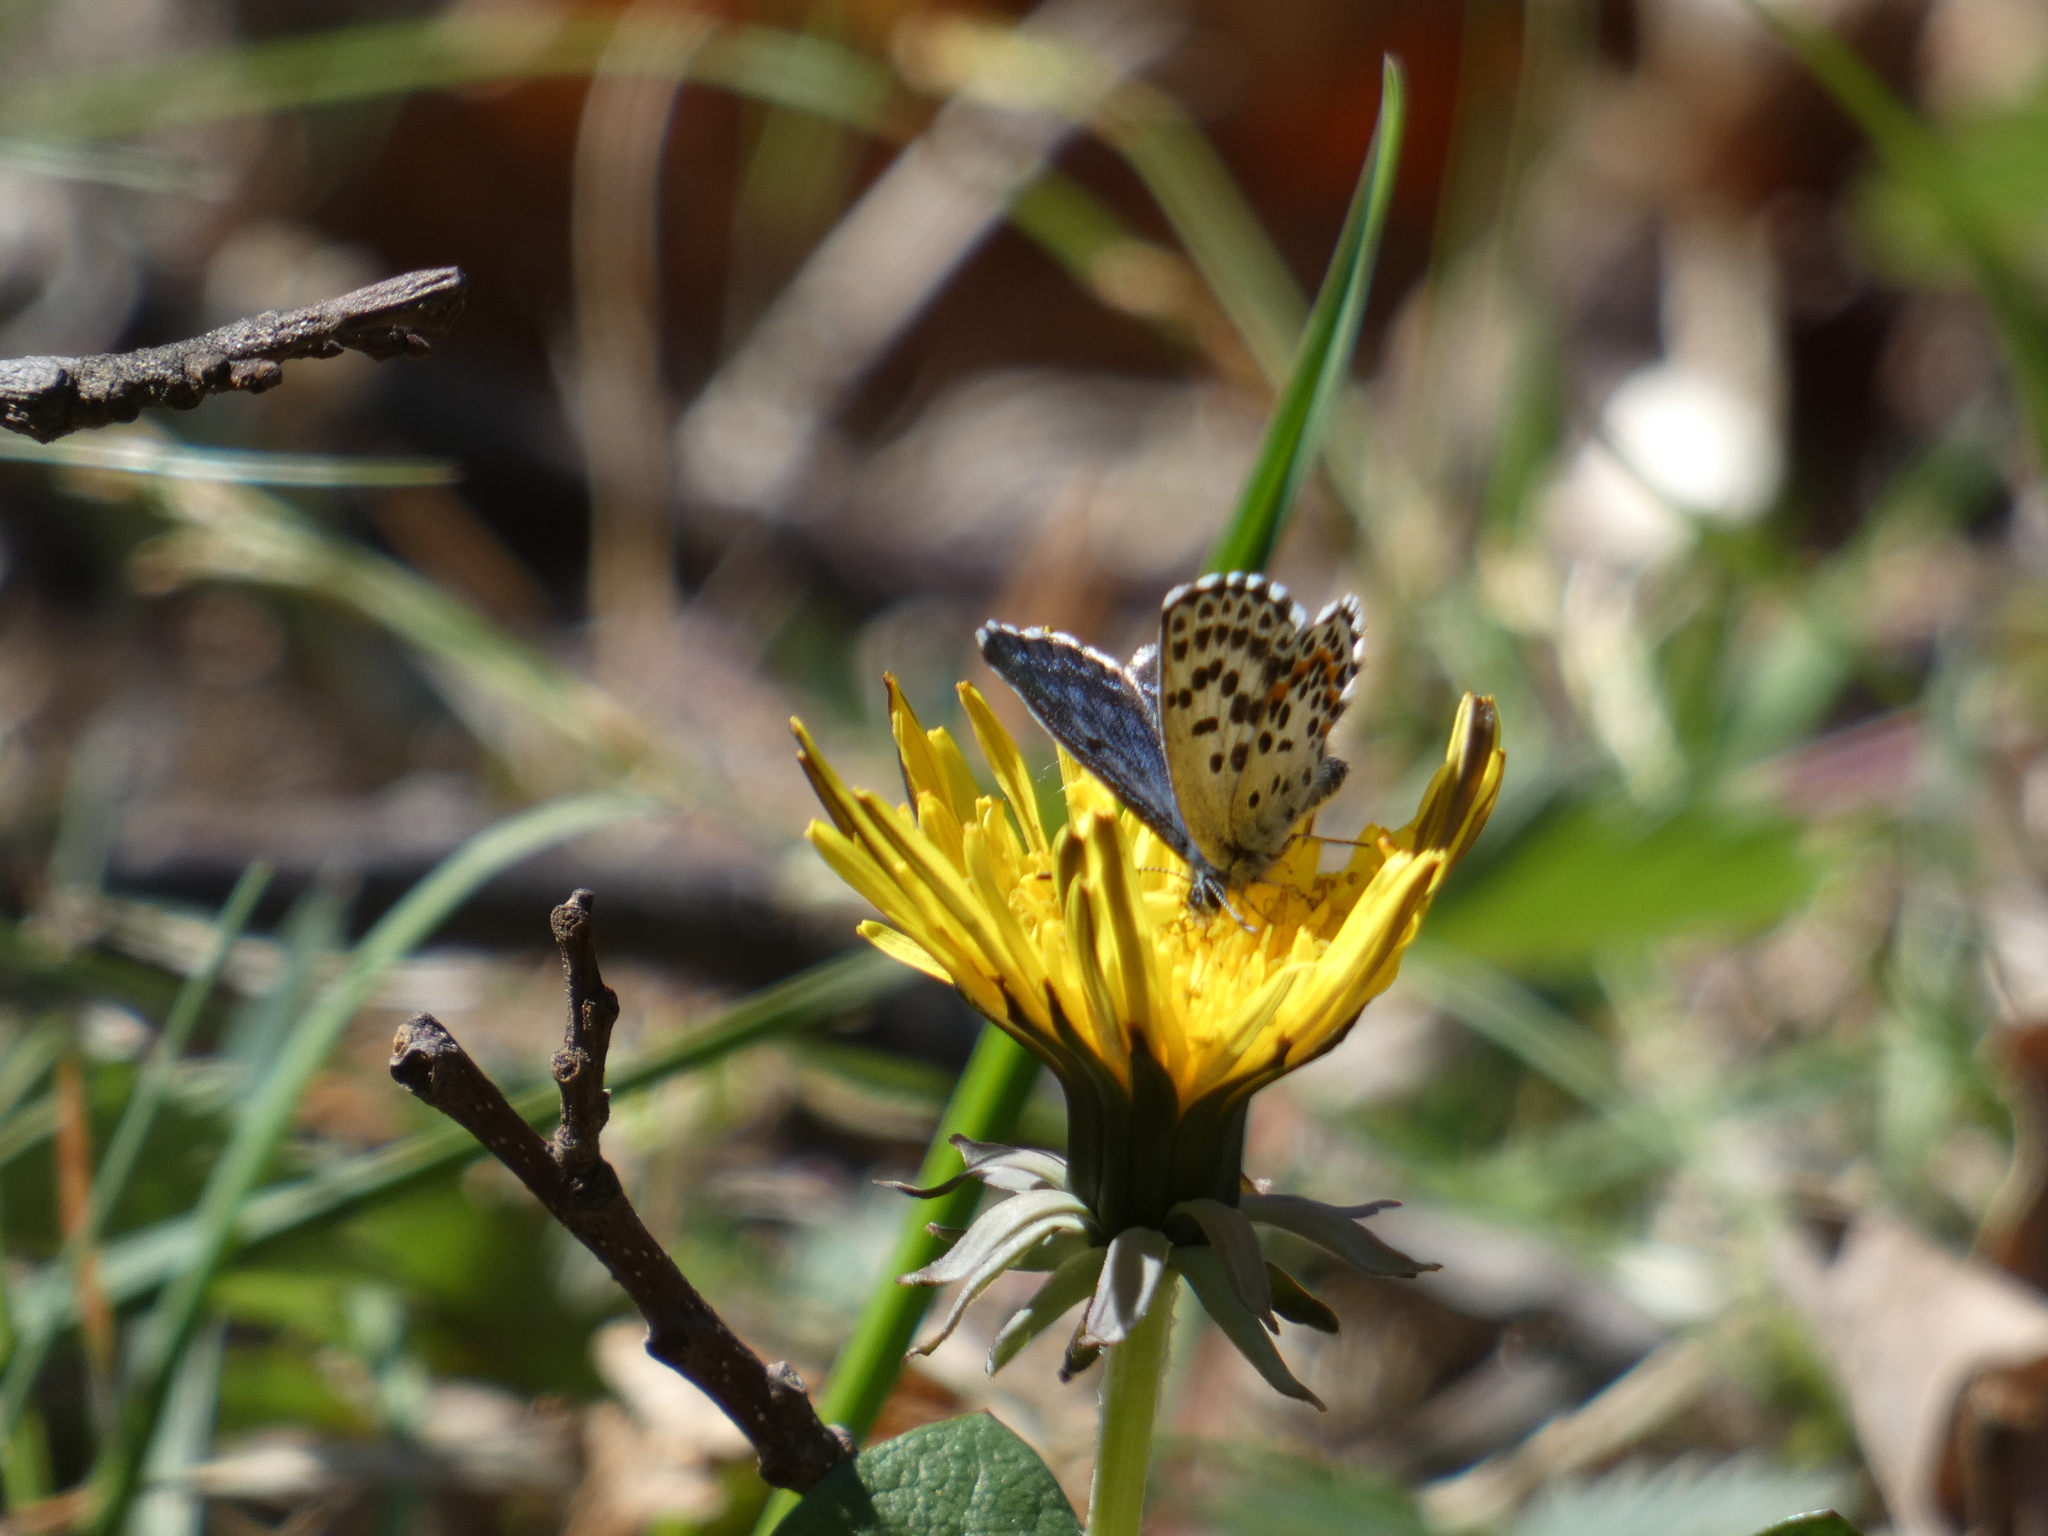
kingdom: Animalia
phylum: Arthropoda
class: Insecta
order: Lepidoptera
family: Lycaenidae
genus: Scolitantides
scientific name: Scolitantides orion
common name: Chequered blue
